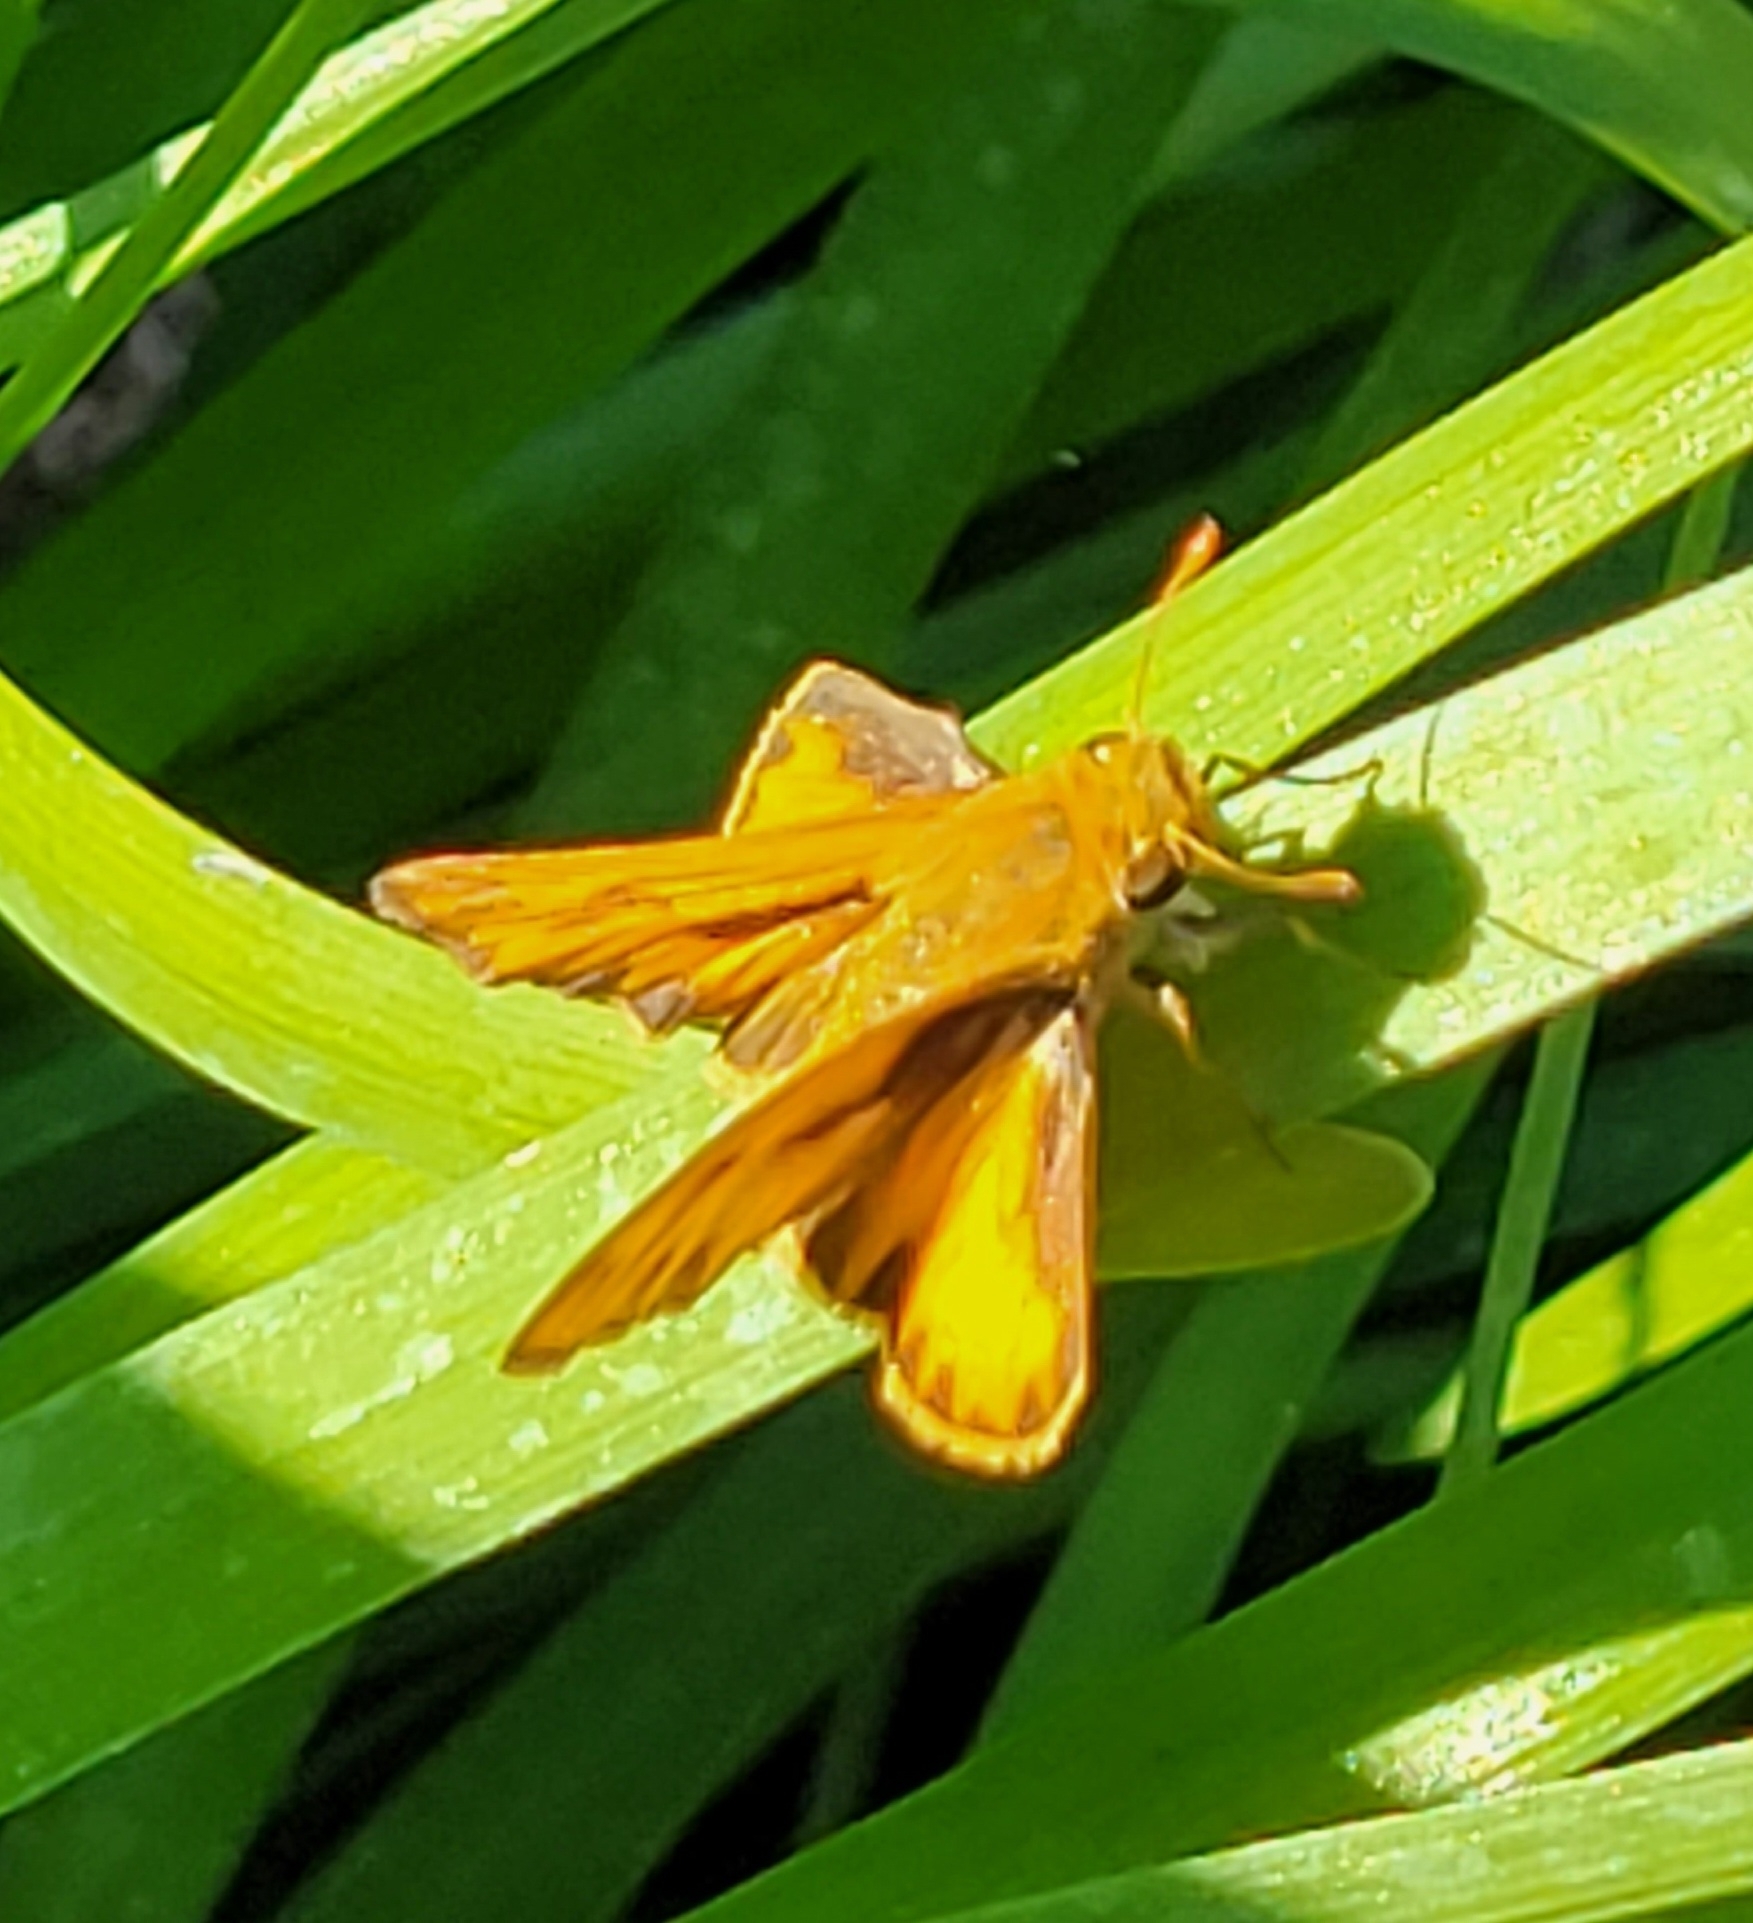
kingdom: Animalia
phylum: Arthropoda
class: Insecta
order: Lepidoptera
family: Hesperiidae
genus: Hylephila
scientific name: Hylephila phyleus
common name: Fiery skipper
